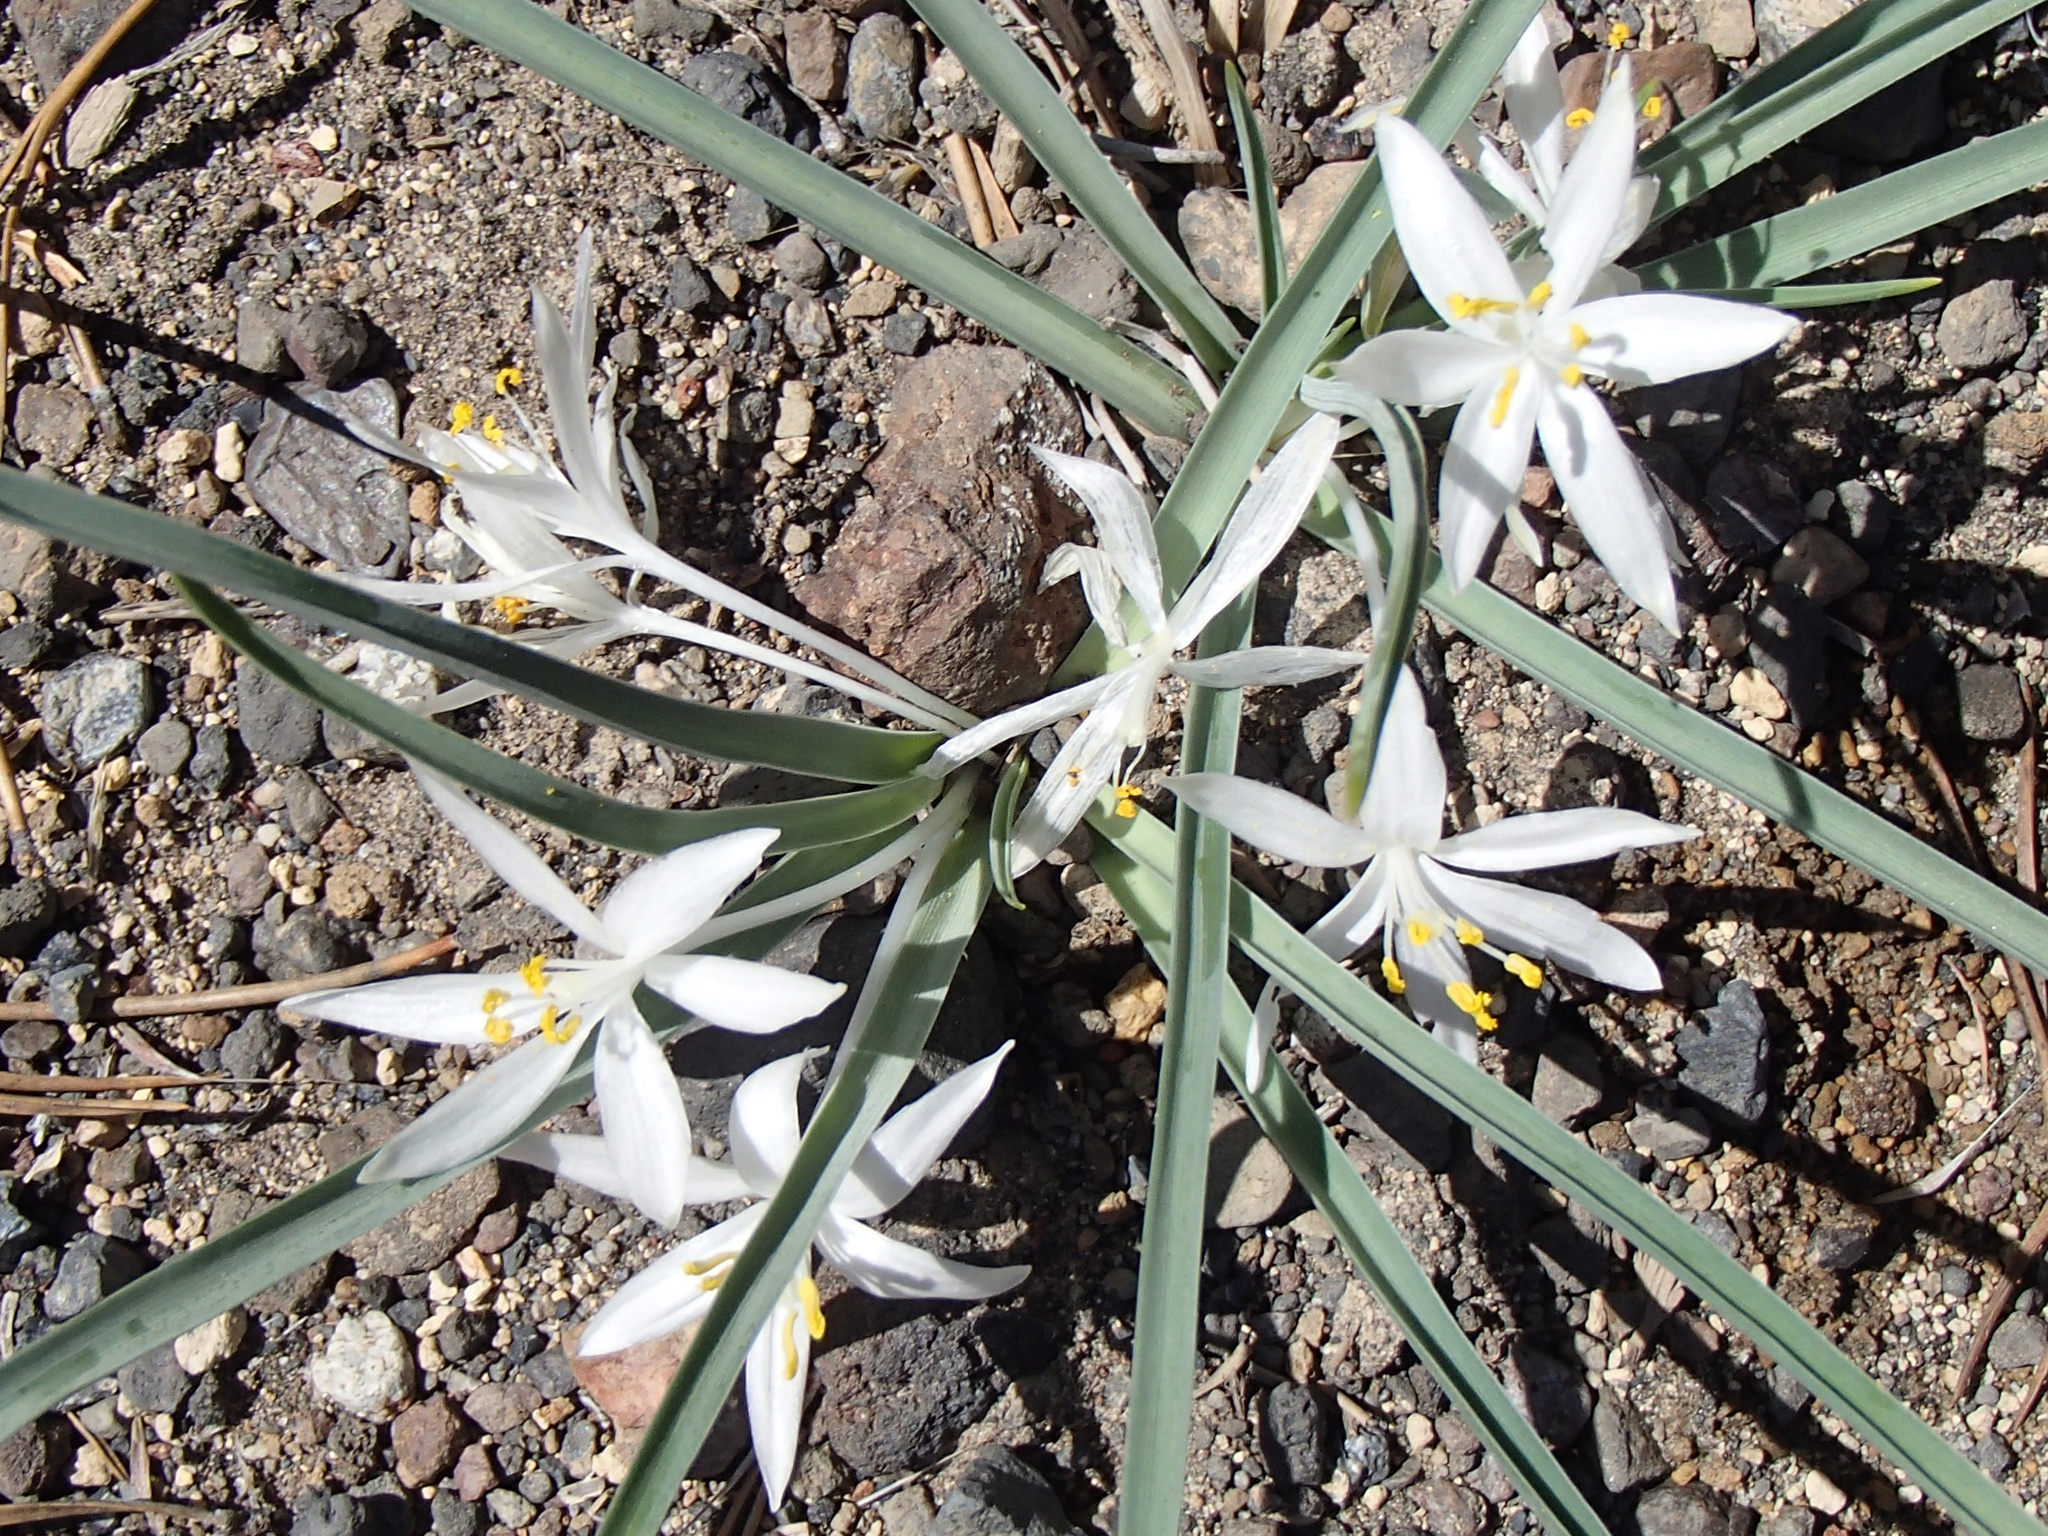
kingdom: Plantae
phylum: Tracheophyta
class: Liliopsida
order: Asparagales
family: Asparagaceae
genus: Leucocrinum
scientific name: Leucocrinum montanum
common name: Mountain-lily
